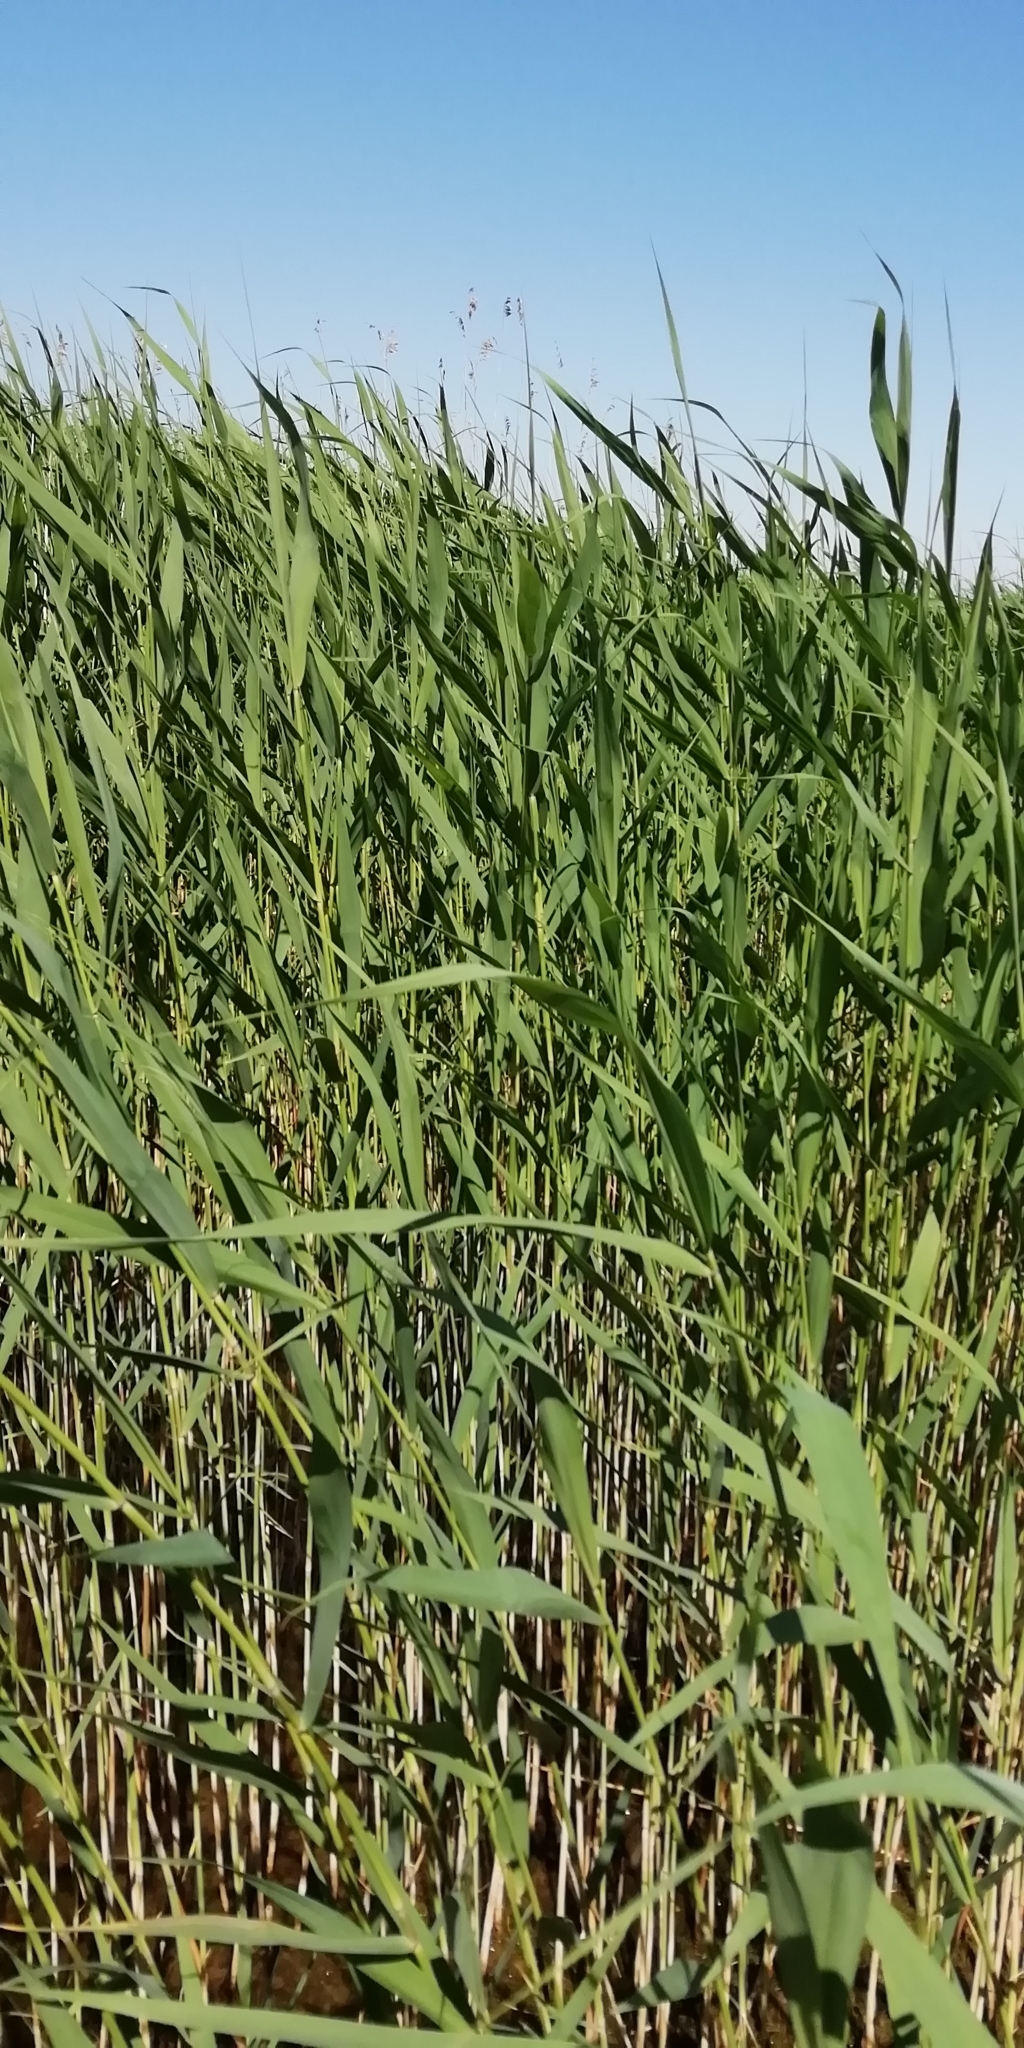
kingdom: Plantae
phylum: Tracheophyta
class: Liliopsida
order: Poales
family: Poaceae
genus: Phragmites
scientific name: Phragmites australis
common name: Common reed
